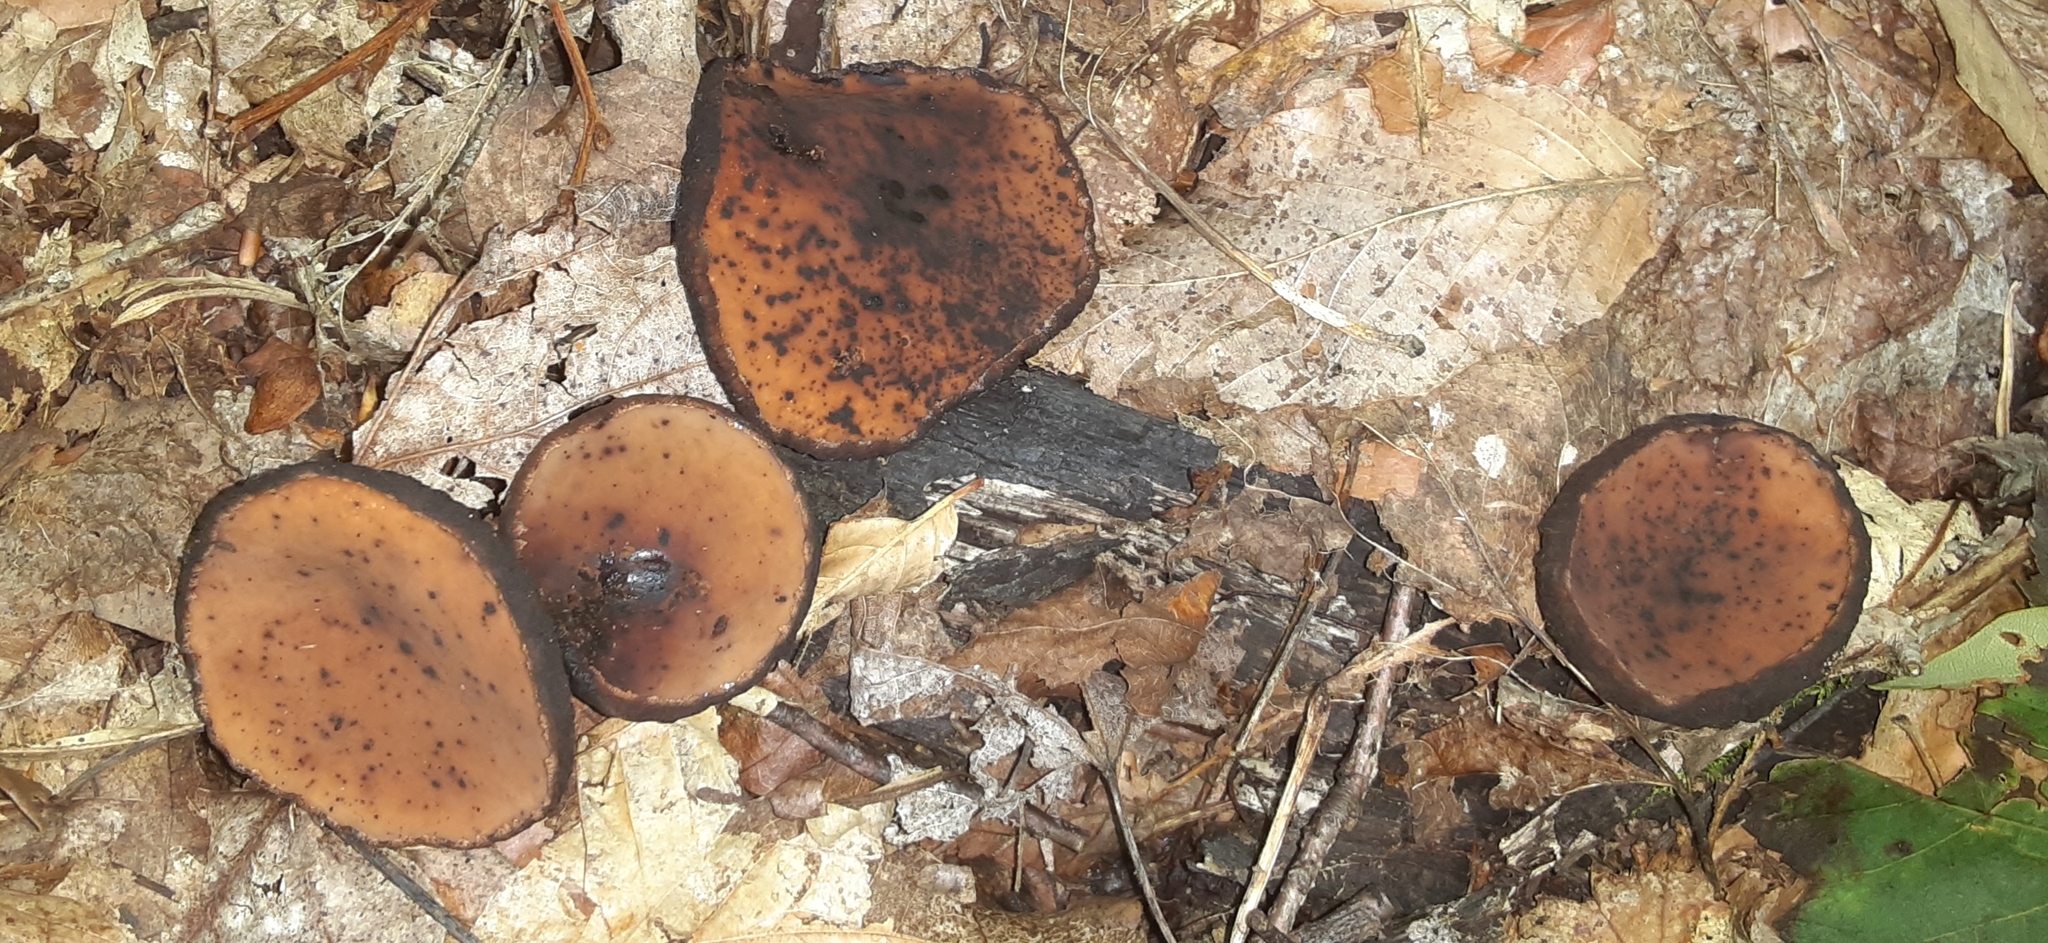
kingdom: Fungi
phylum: Ascomycota
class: Pezizomycetes
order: Pezizales
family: Sarcosomataceae
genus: Galiella
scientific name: Galiella rufa
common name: Hairy rubber cup
